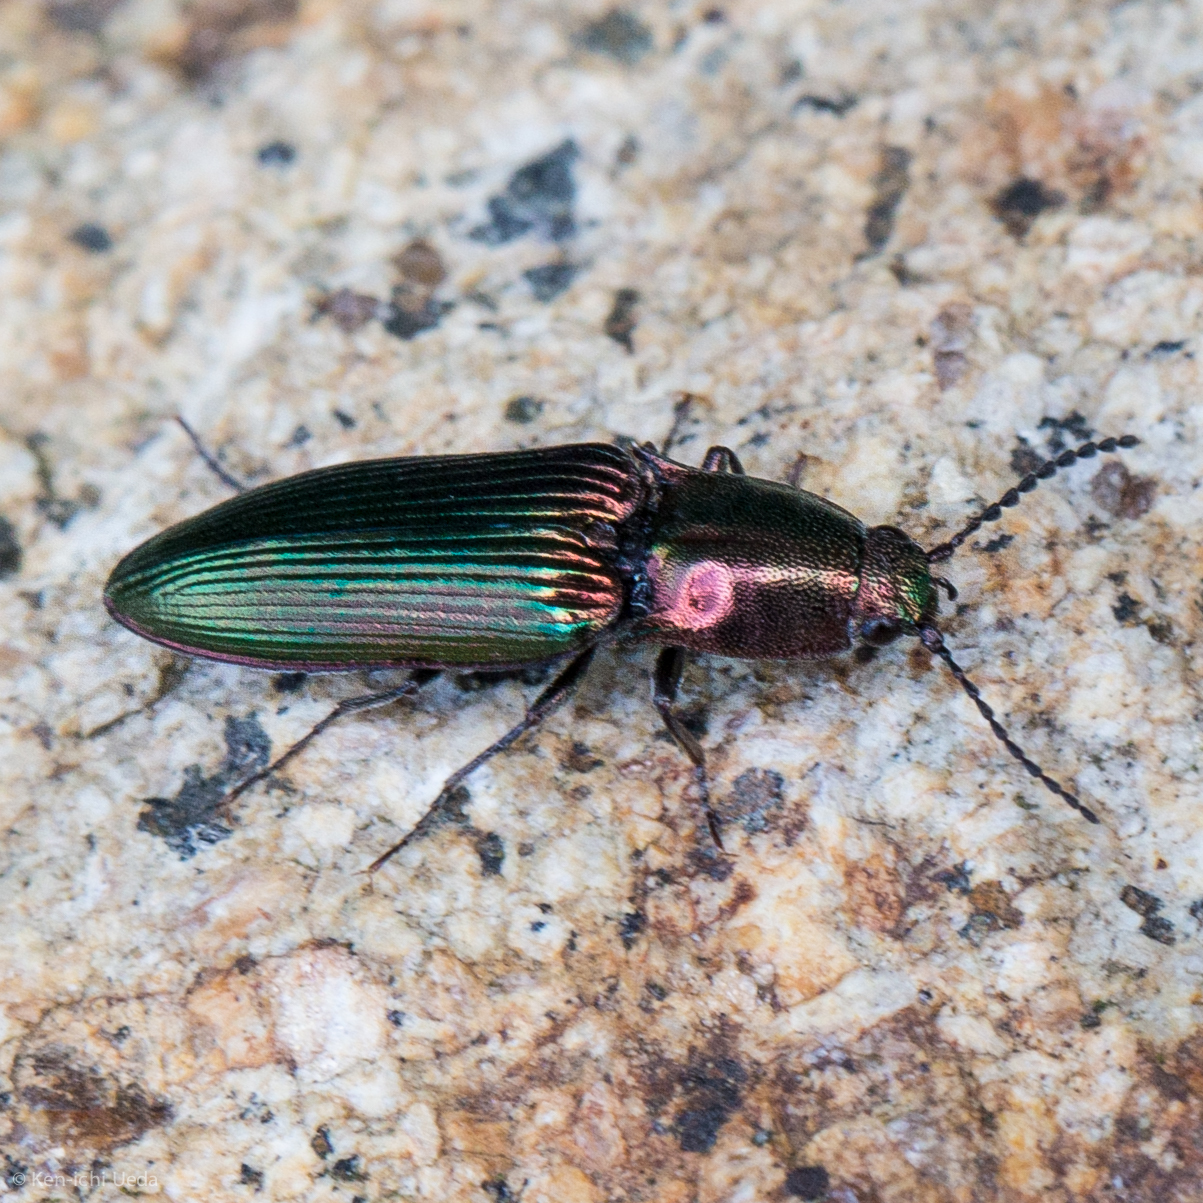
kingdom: Animalia
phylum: Arthropoda
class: Insecta
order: Coleoptera
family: Elateridae
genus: Nitidolimonius
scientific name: Nitidolimonius resplendens
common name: Resplendent click beetle
